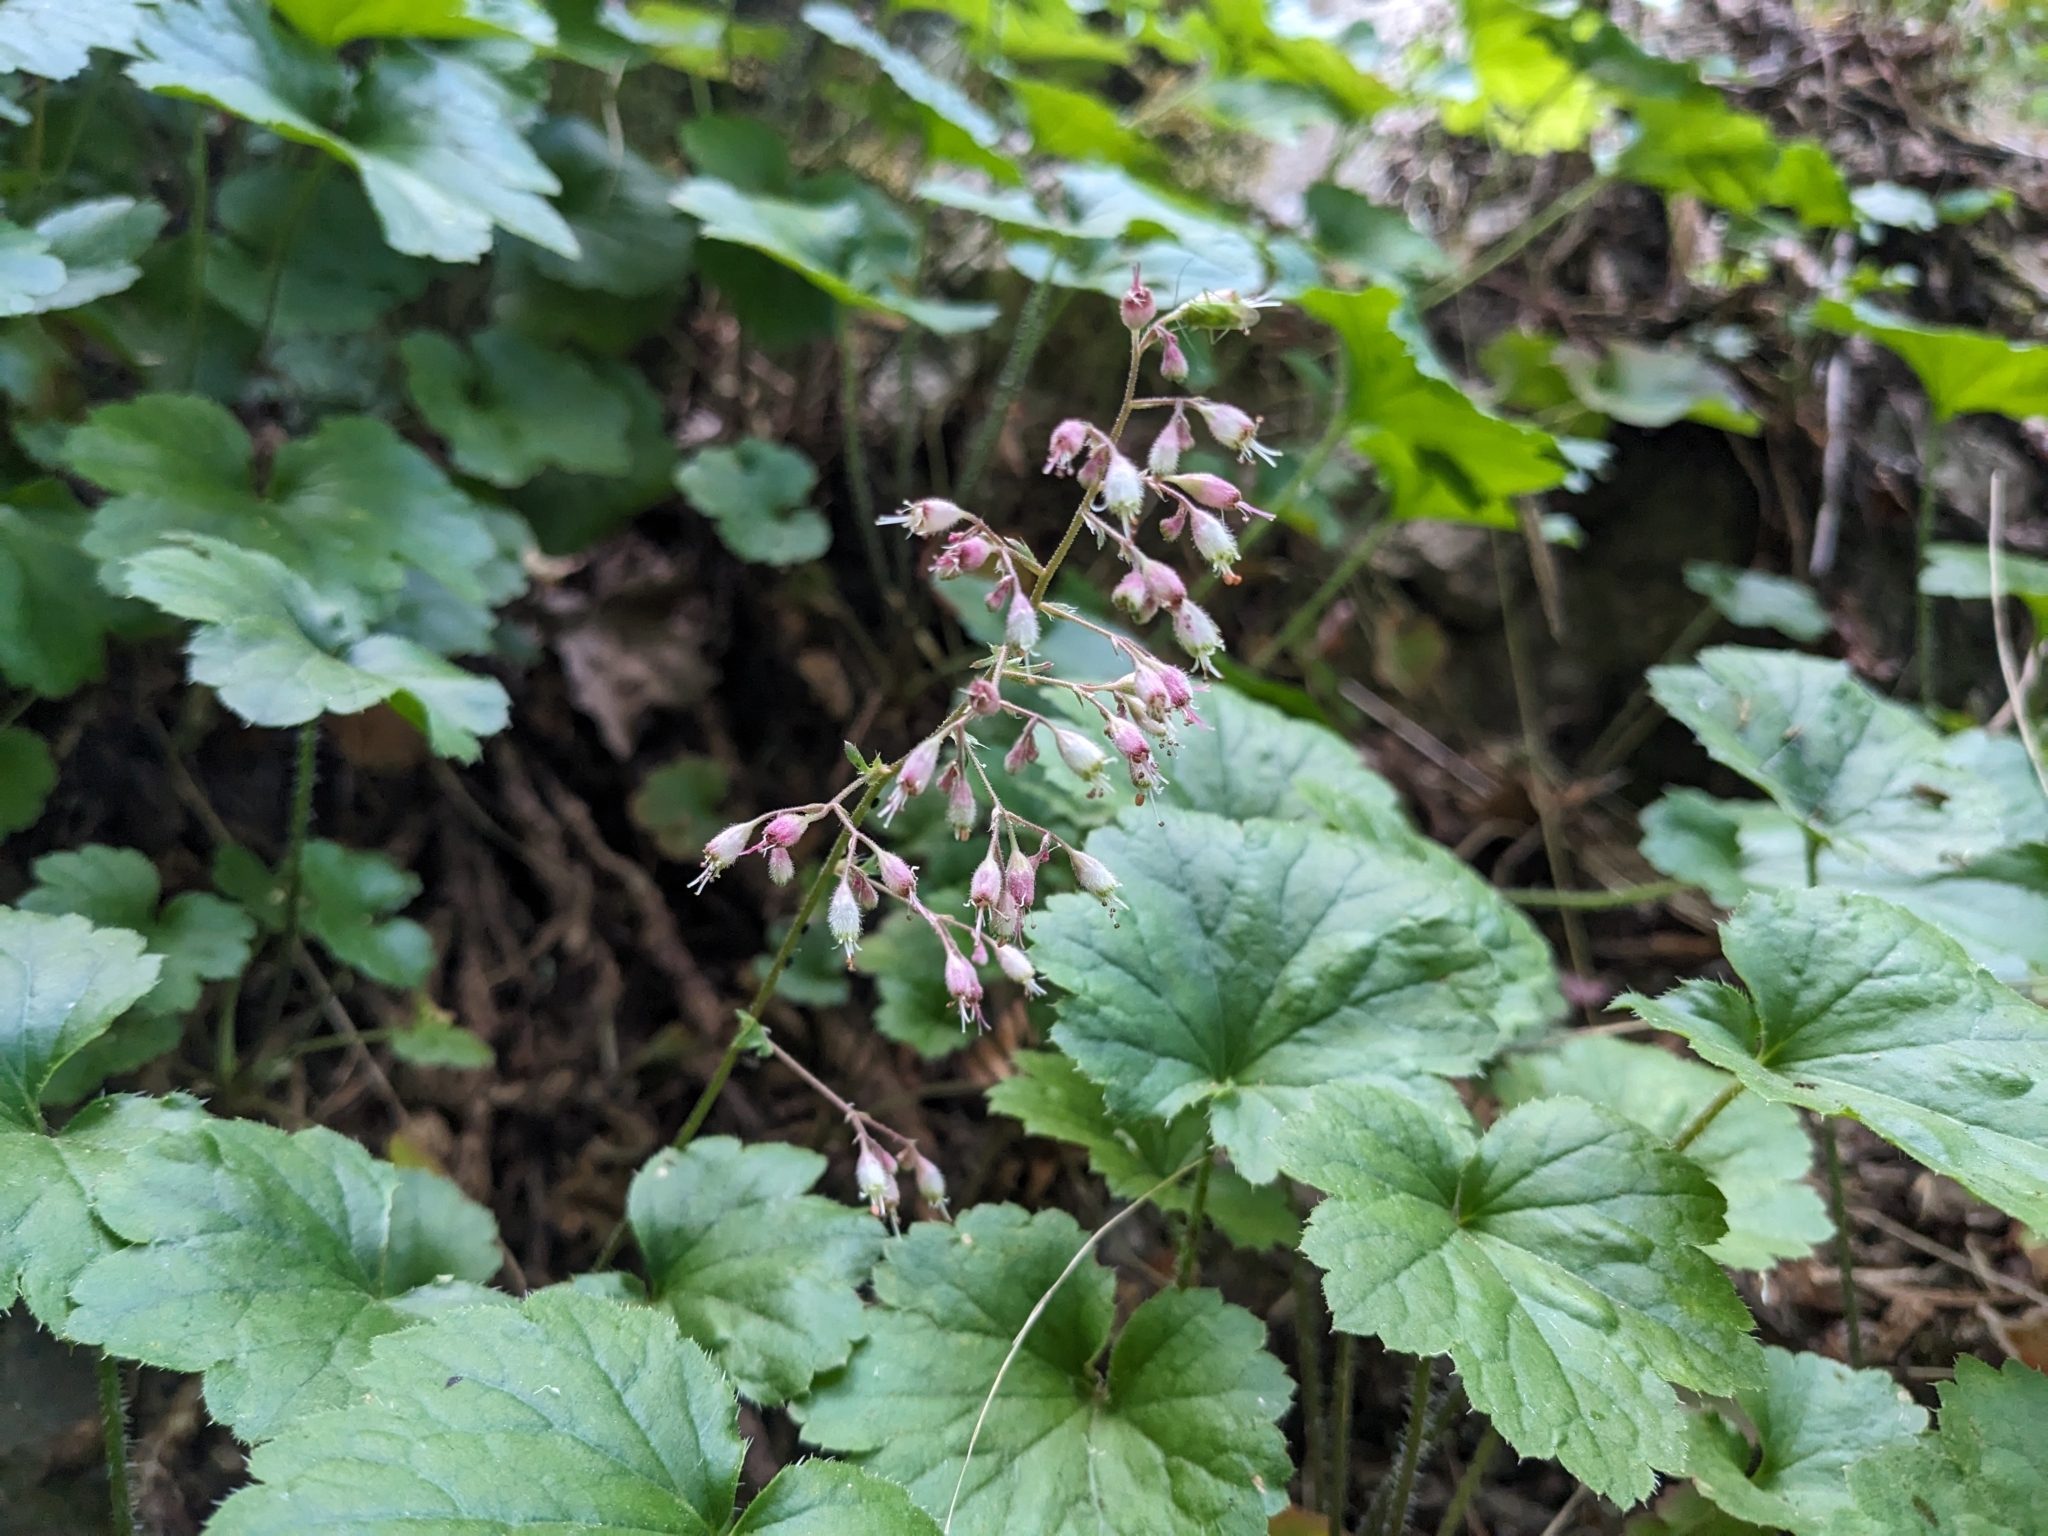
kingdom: Plantae
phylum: Tracheophyta
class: Magnoliopsida
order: Saxifragales
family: Saxifragaceae
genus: Heuchera
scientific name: Heuchera rubescens
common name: Jack-o'the-rocks
